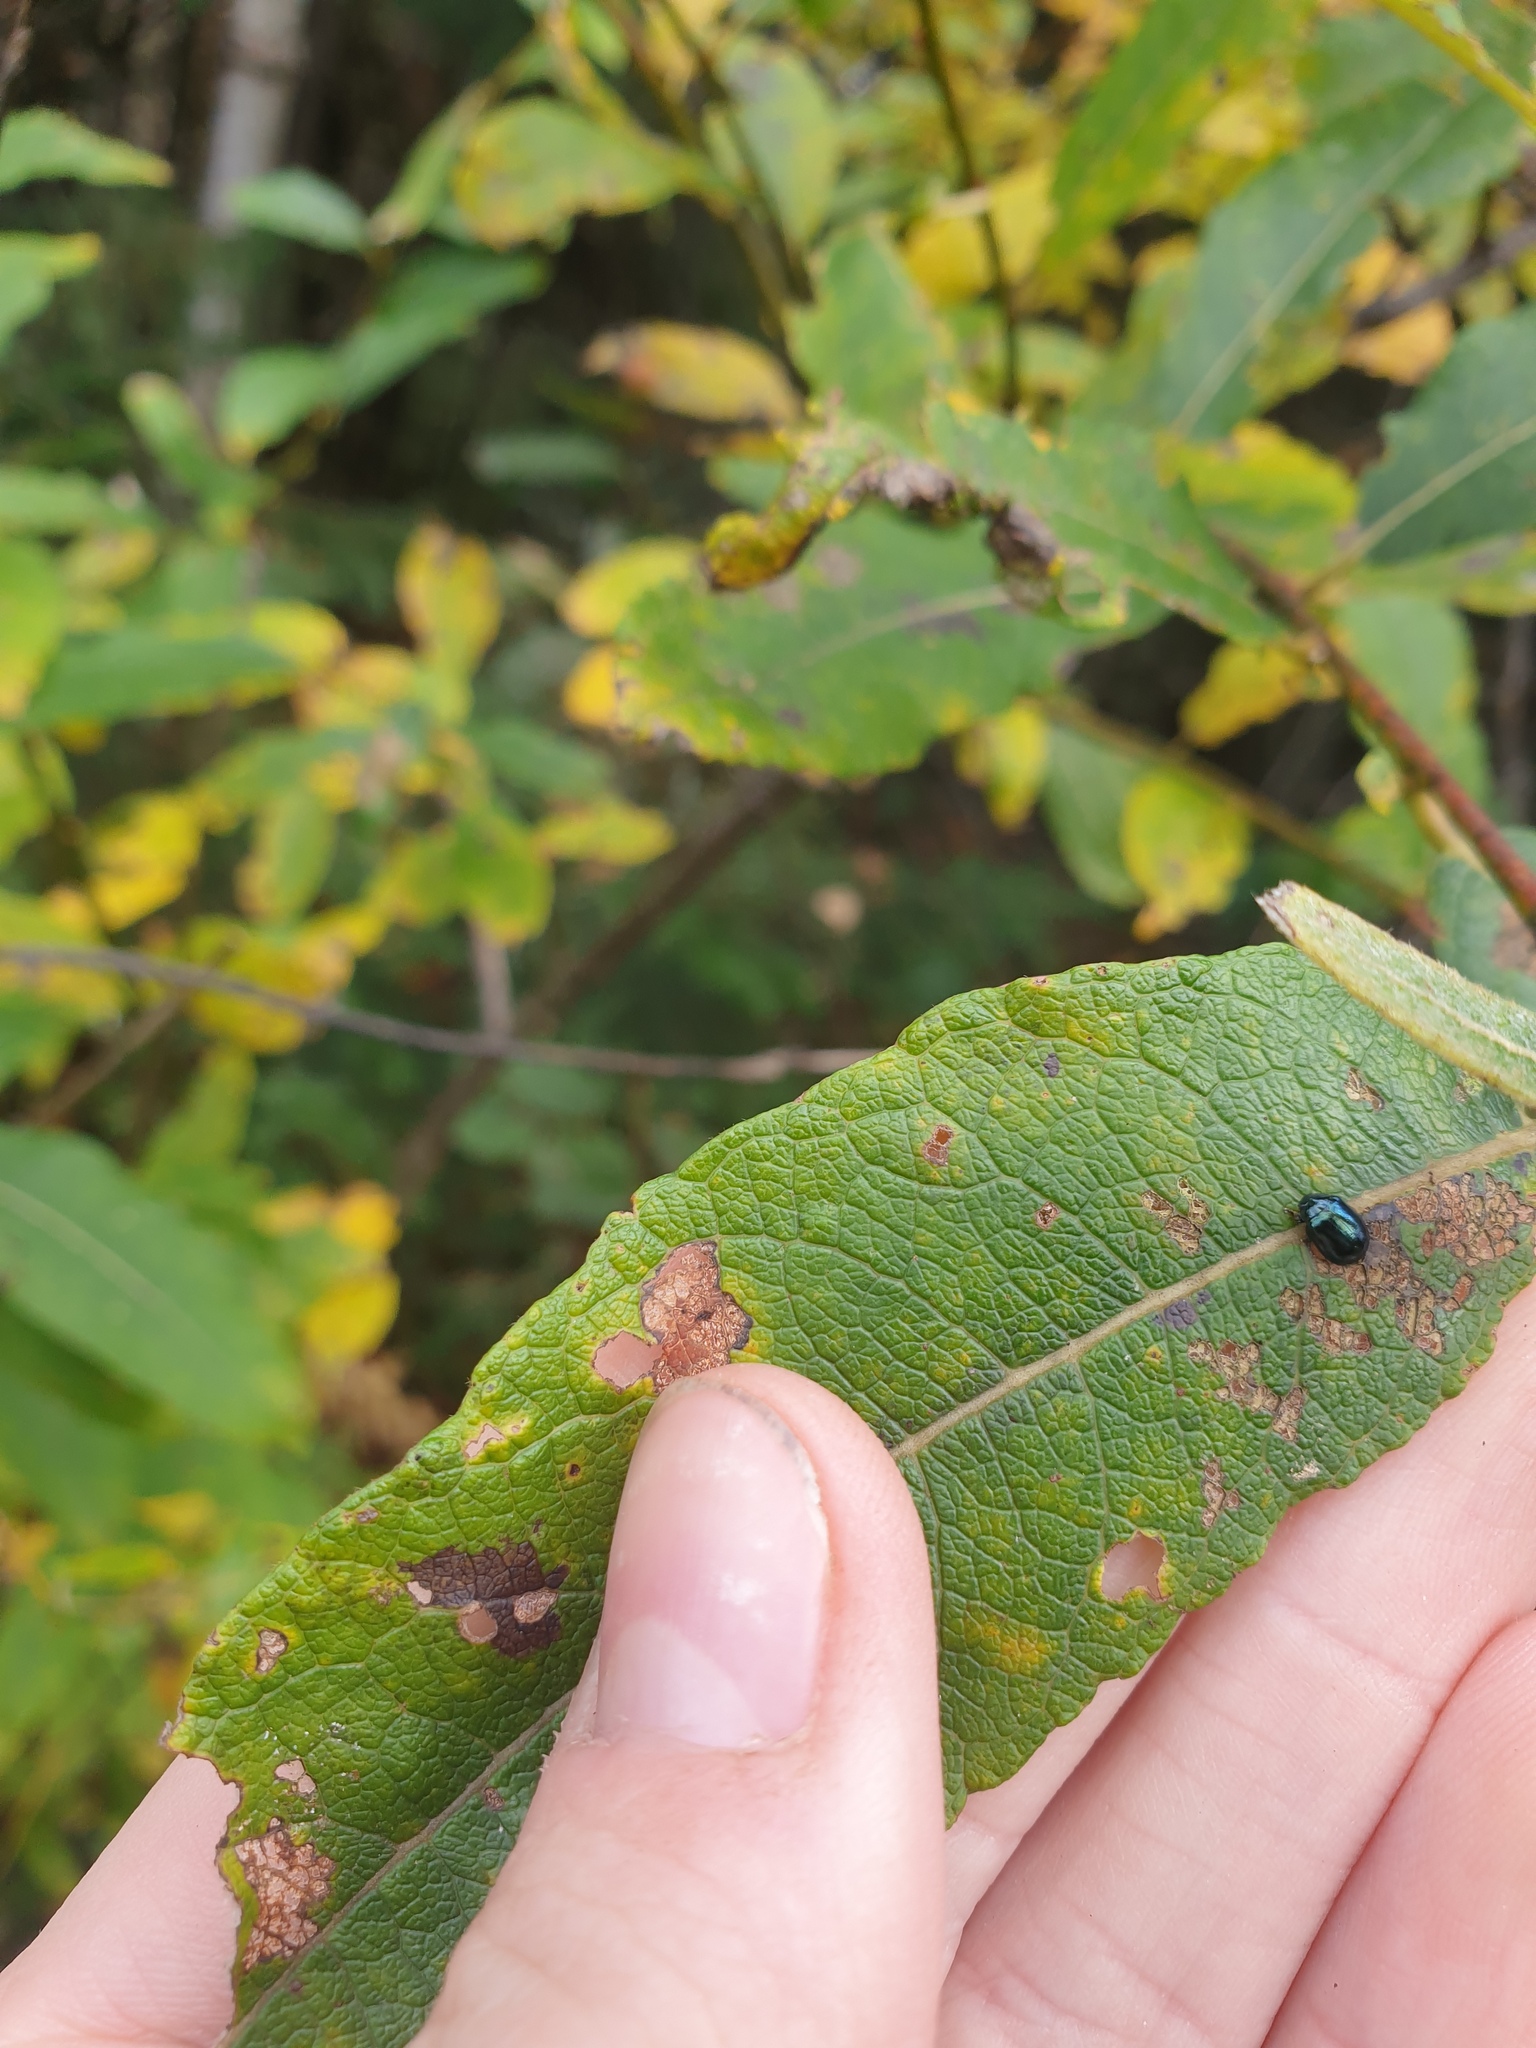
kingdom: Animalia
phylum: Arthropoda
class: Insecta
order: Coleoptera
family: Chrysomelidae
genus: Plagiodera
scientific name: Plagiodera versicolora
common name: Imported willow leaf beetle
